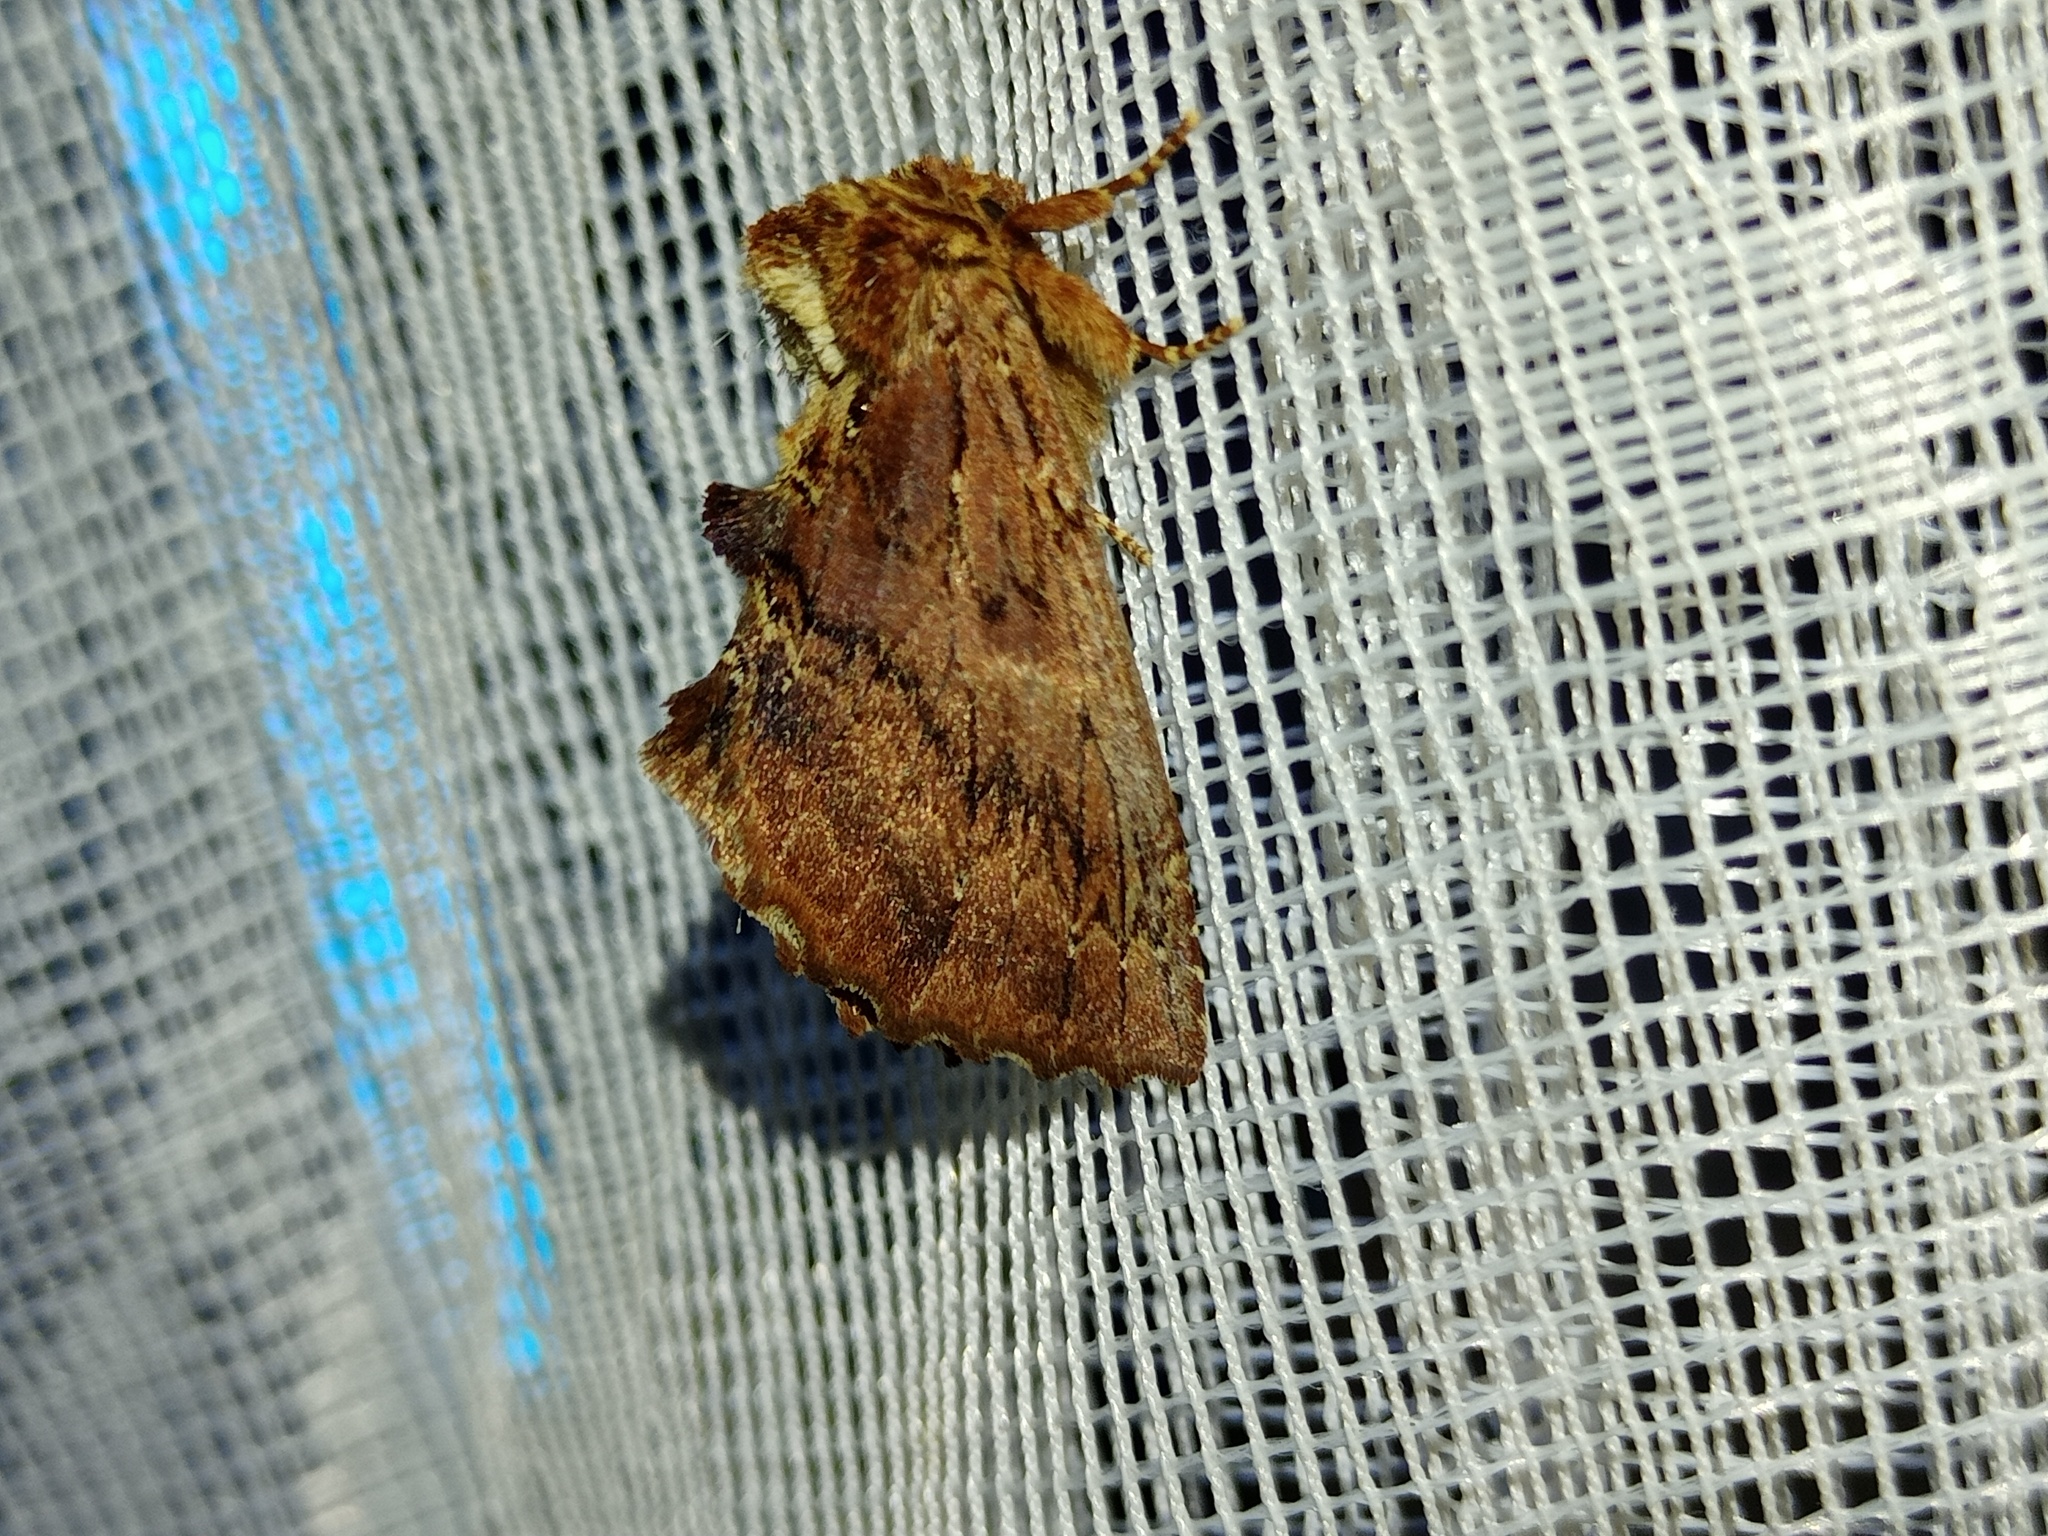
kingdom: Animalia
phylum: Arthropoda
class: Insecta
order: Lepidoptera
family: Notodontidae
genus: Ptilodon
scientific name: Ptilodon capucina
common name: Coxcomb prominent
